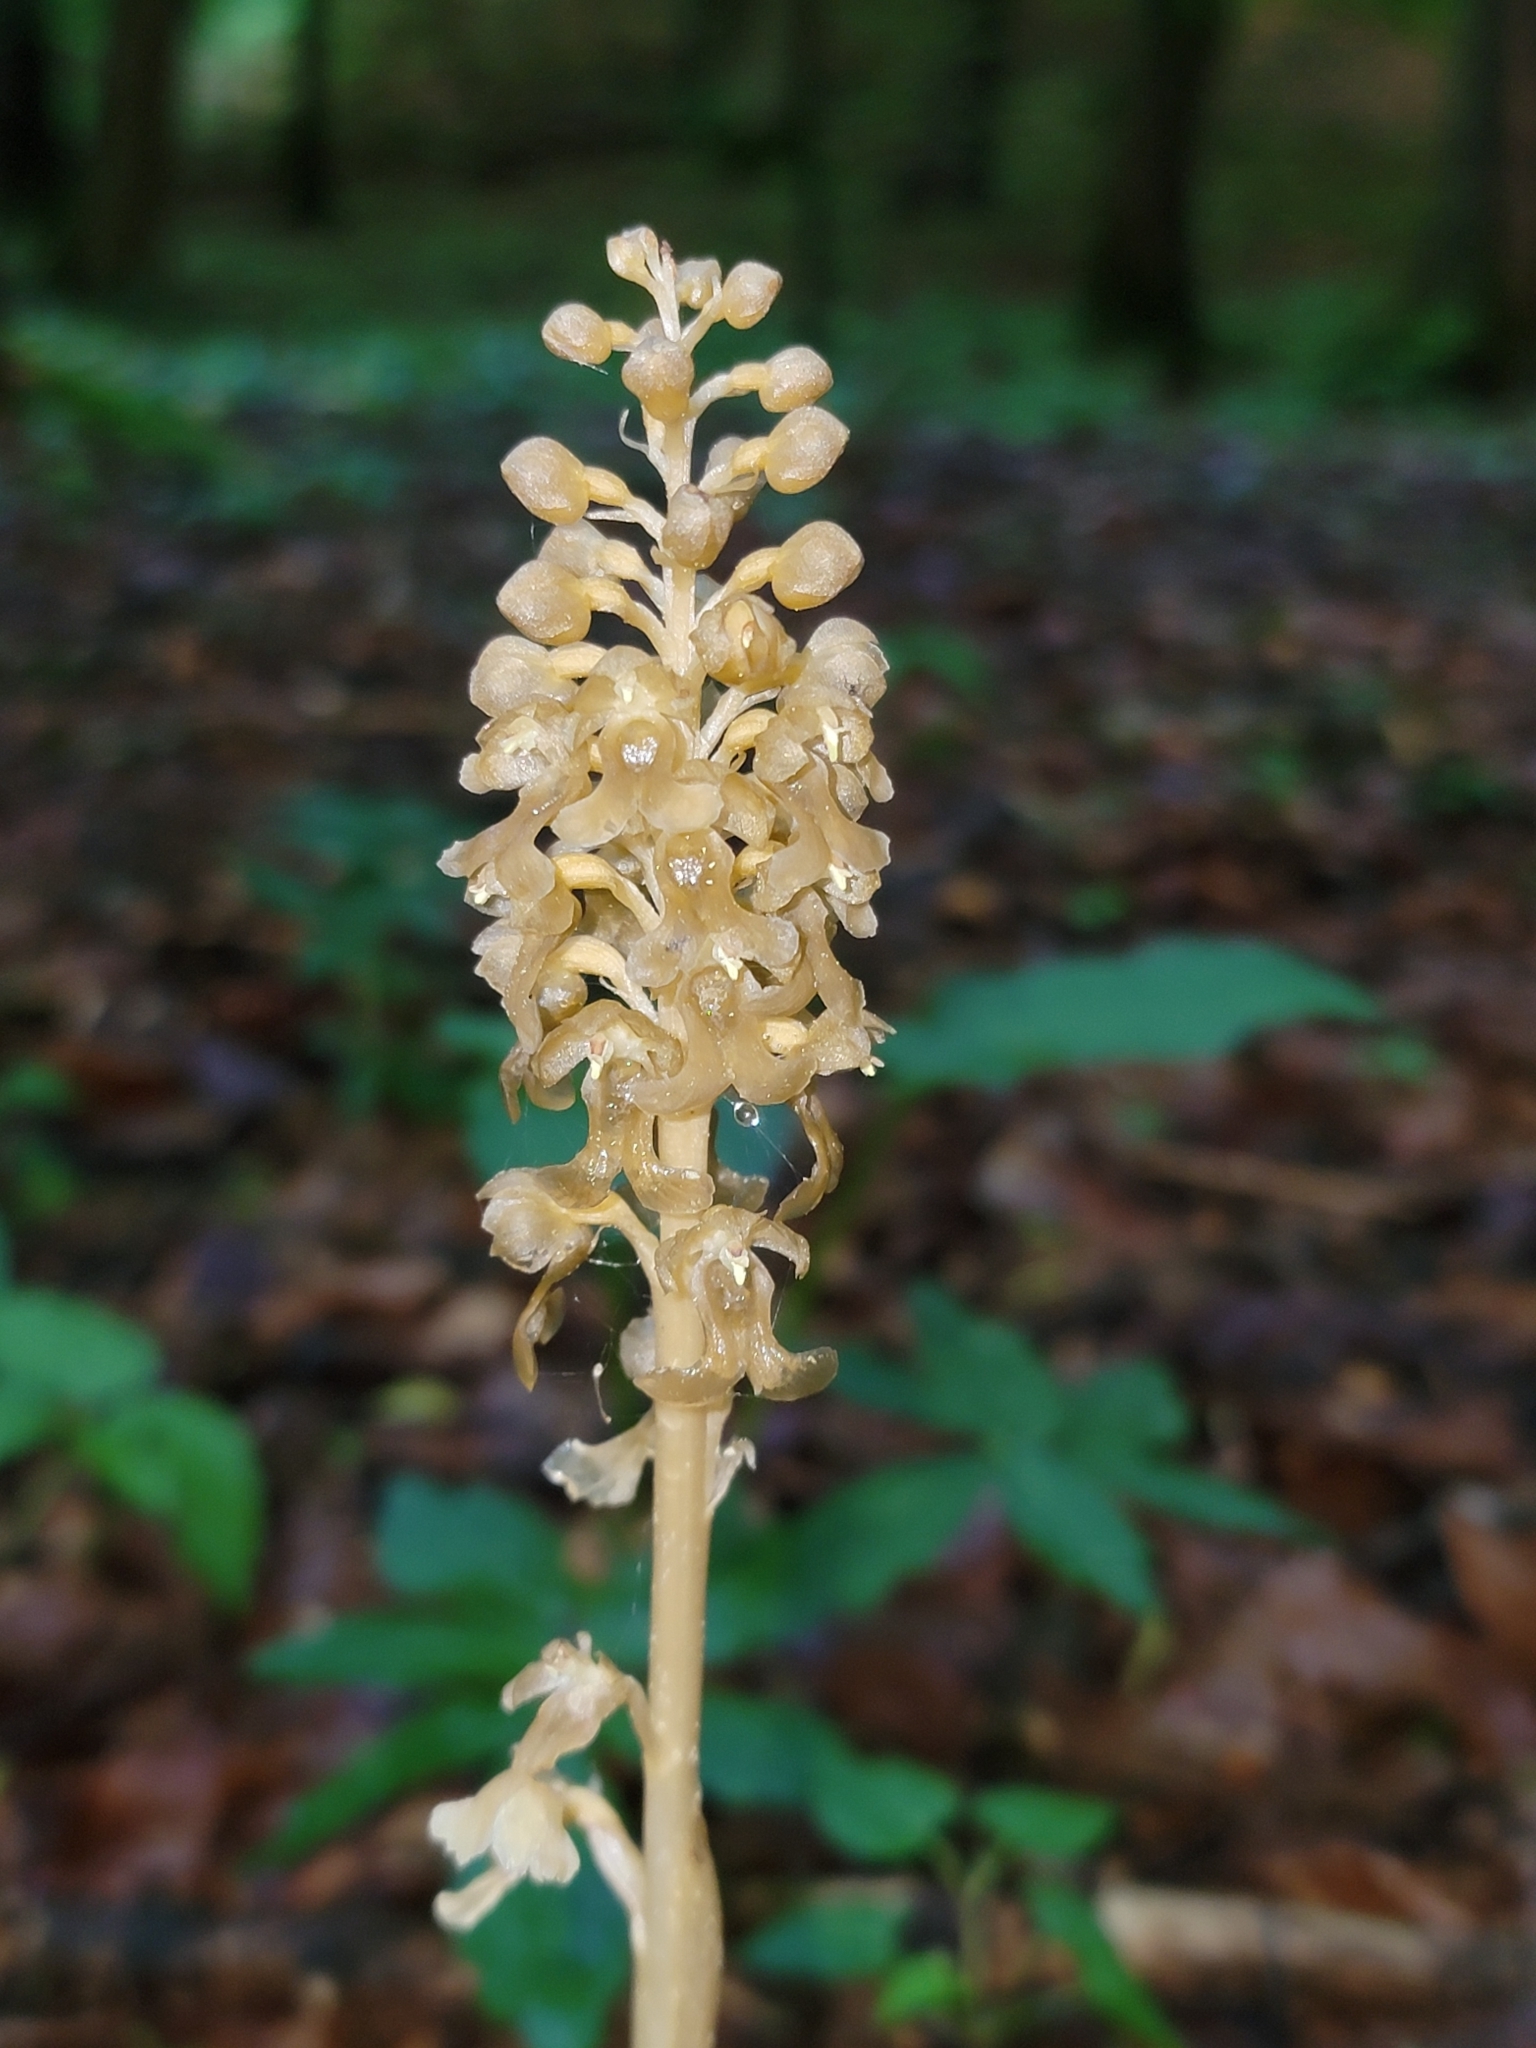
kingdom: Plantae
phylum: Tracheophyta
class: Liliopsida
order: Asparagales
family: Orchidaceae
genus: Neottia
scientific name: Neottia nidus-avis
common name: Bird's-nest orchid
